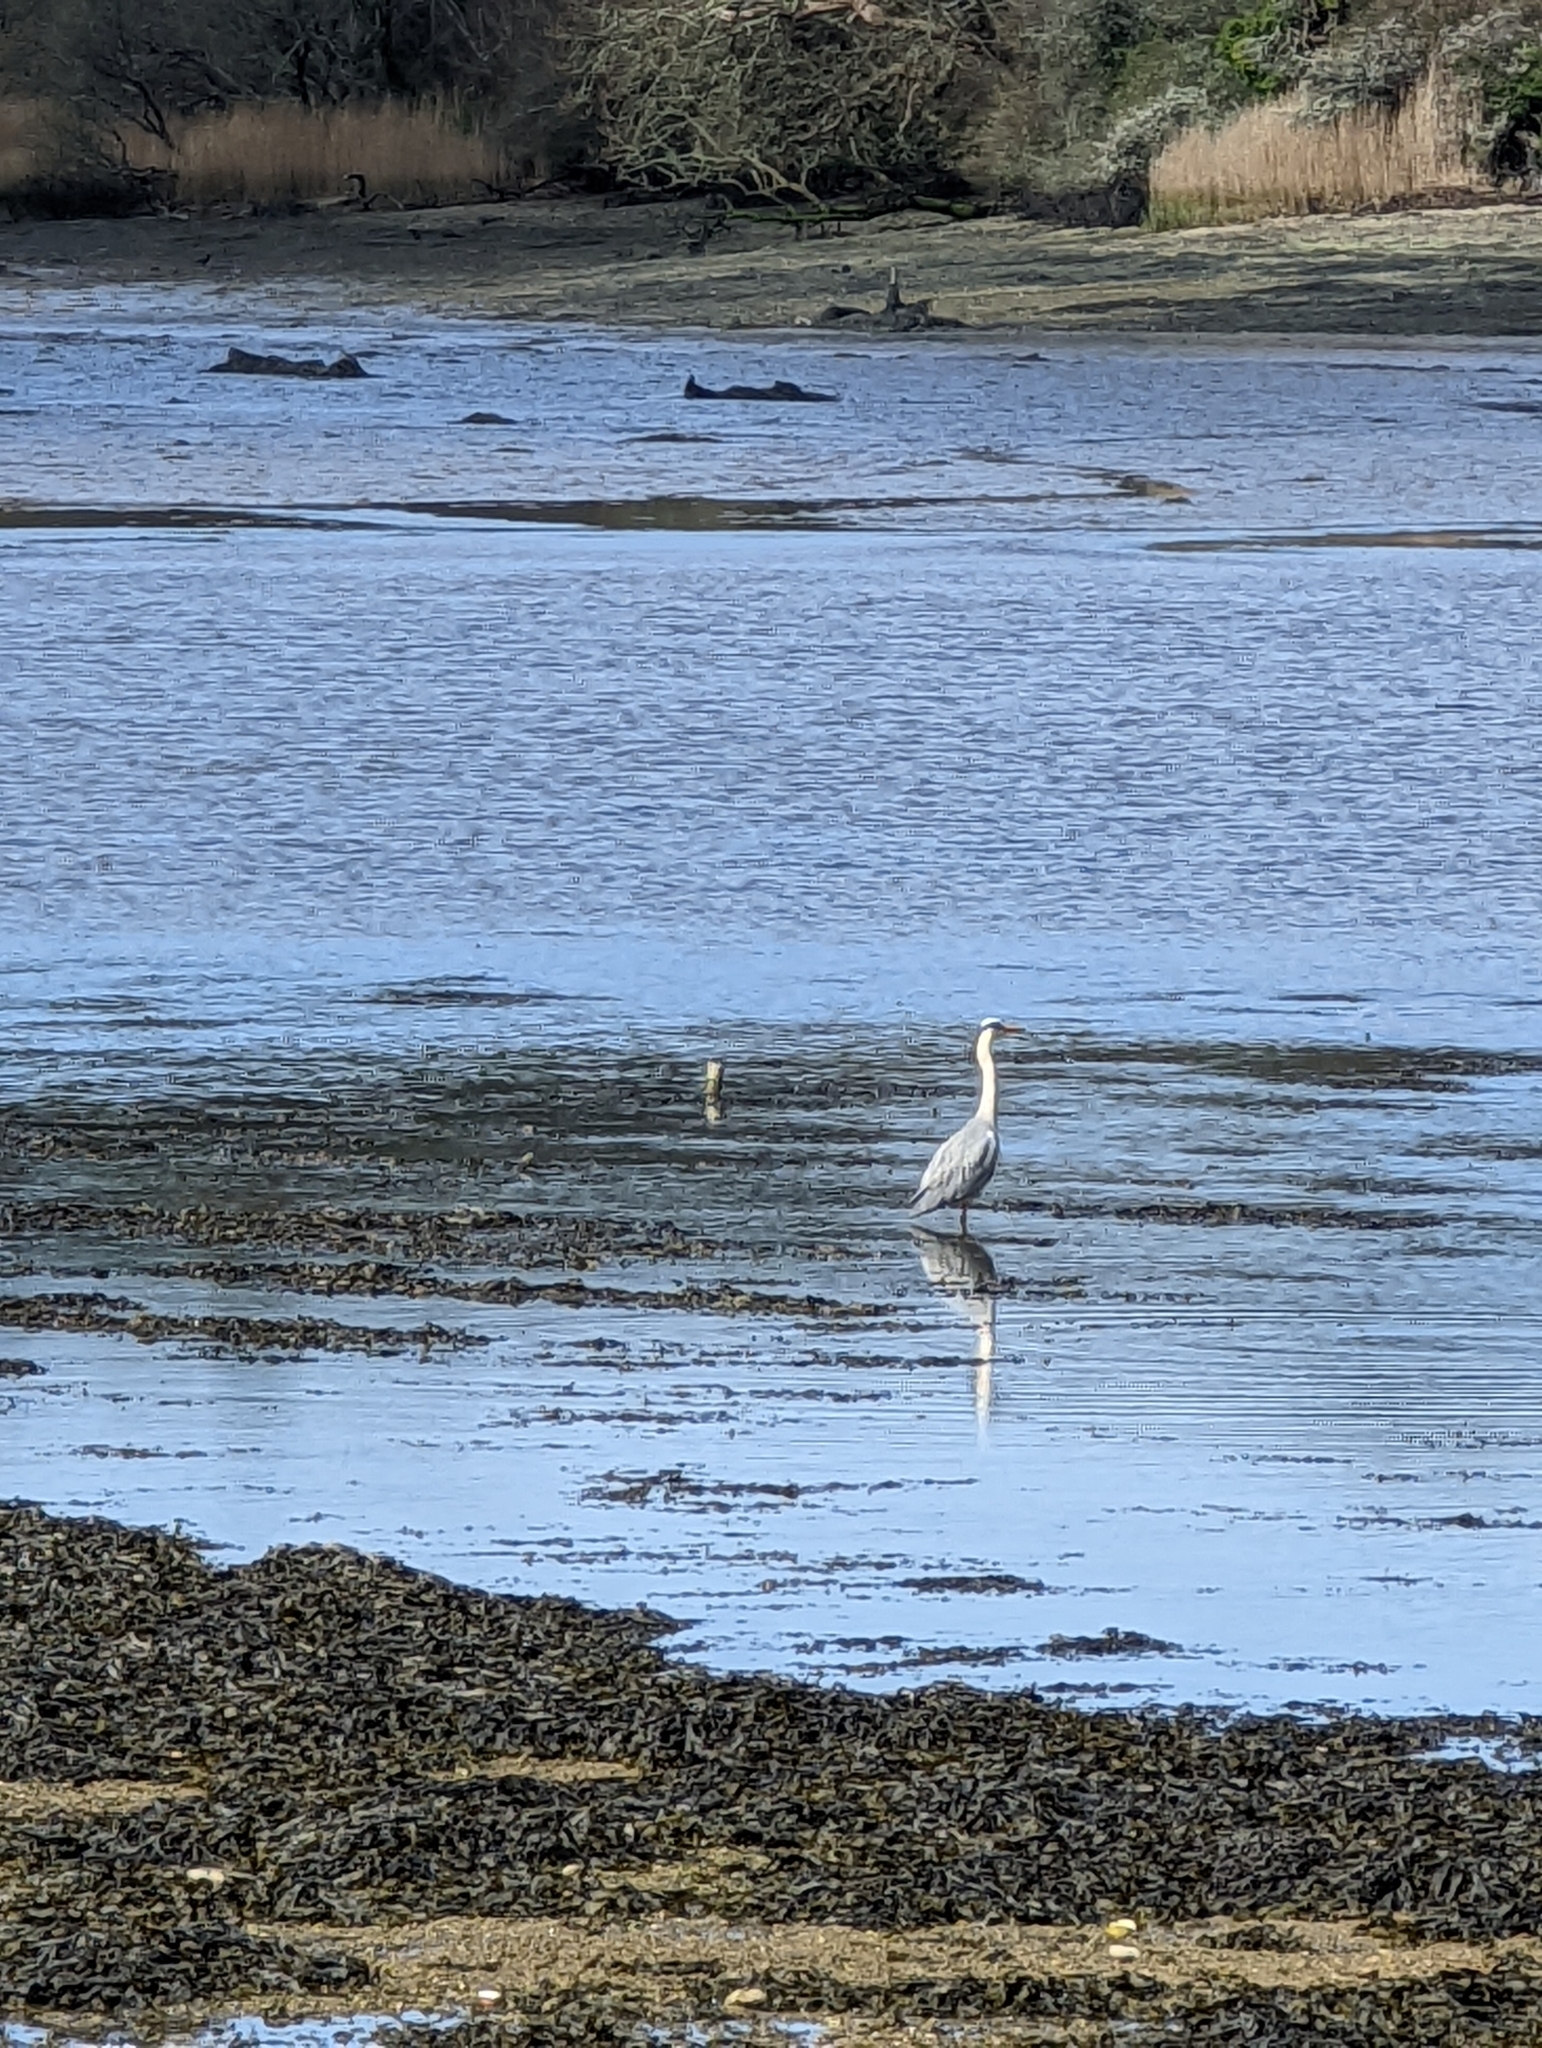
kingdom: Animalia
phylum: Chordata
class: Aves
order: Pelecaniformes
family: Ardeidae
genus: Ardea
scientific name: Ardea cinerea
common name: Grey heron
